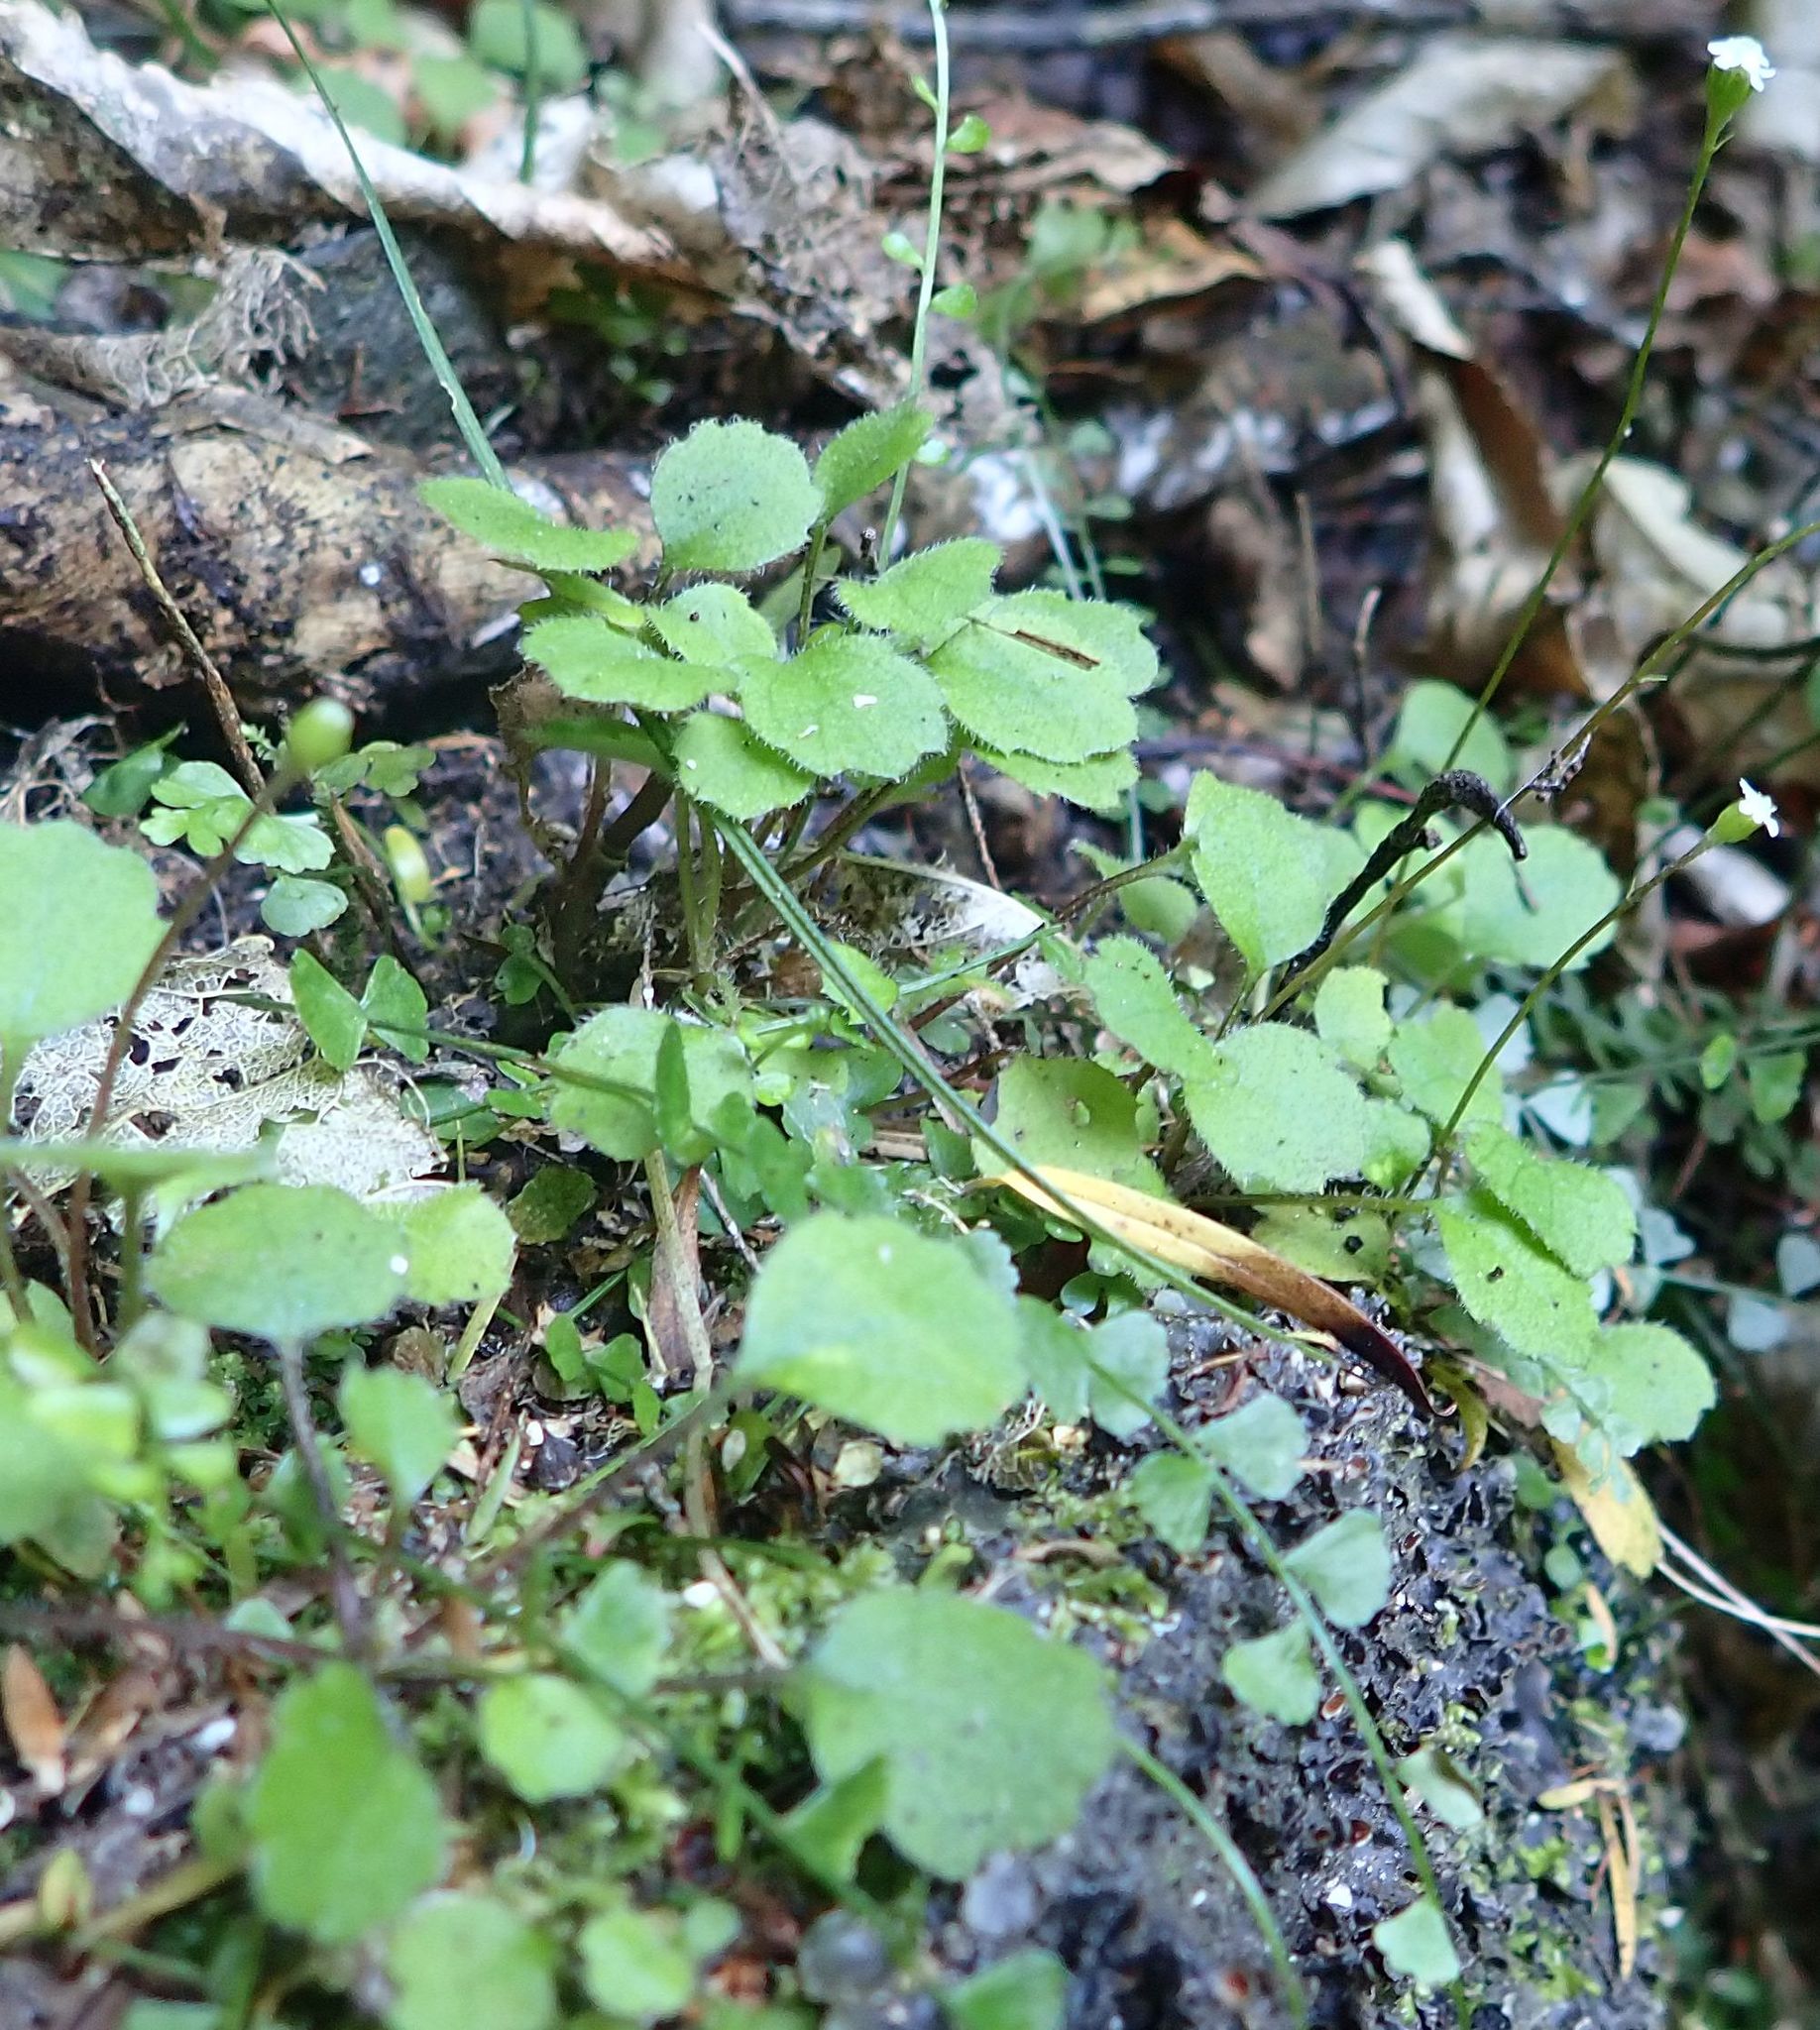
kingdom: Plantae
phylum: Tracheophyta
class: Magnoliopsida
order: Asterales
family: Asteraceae
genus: Lagenophora
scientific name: Lagenophora strangulata
